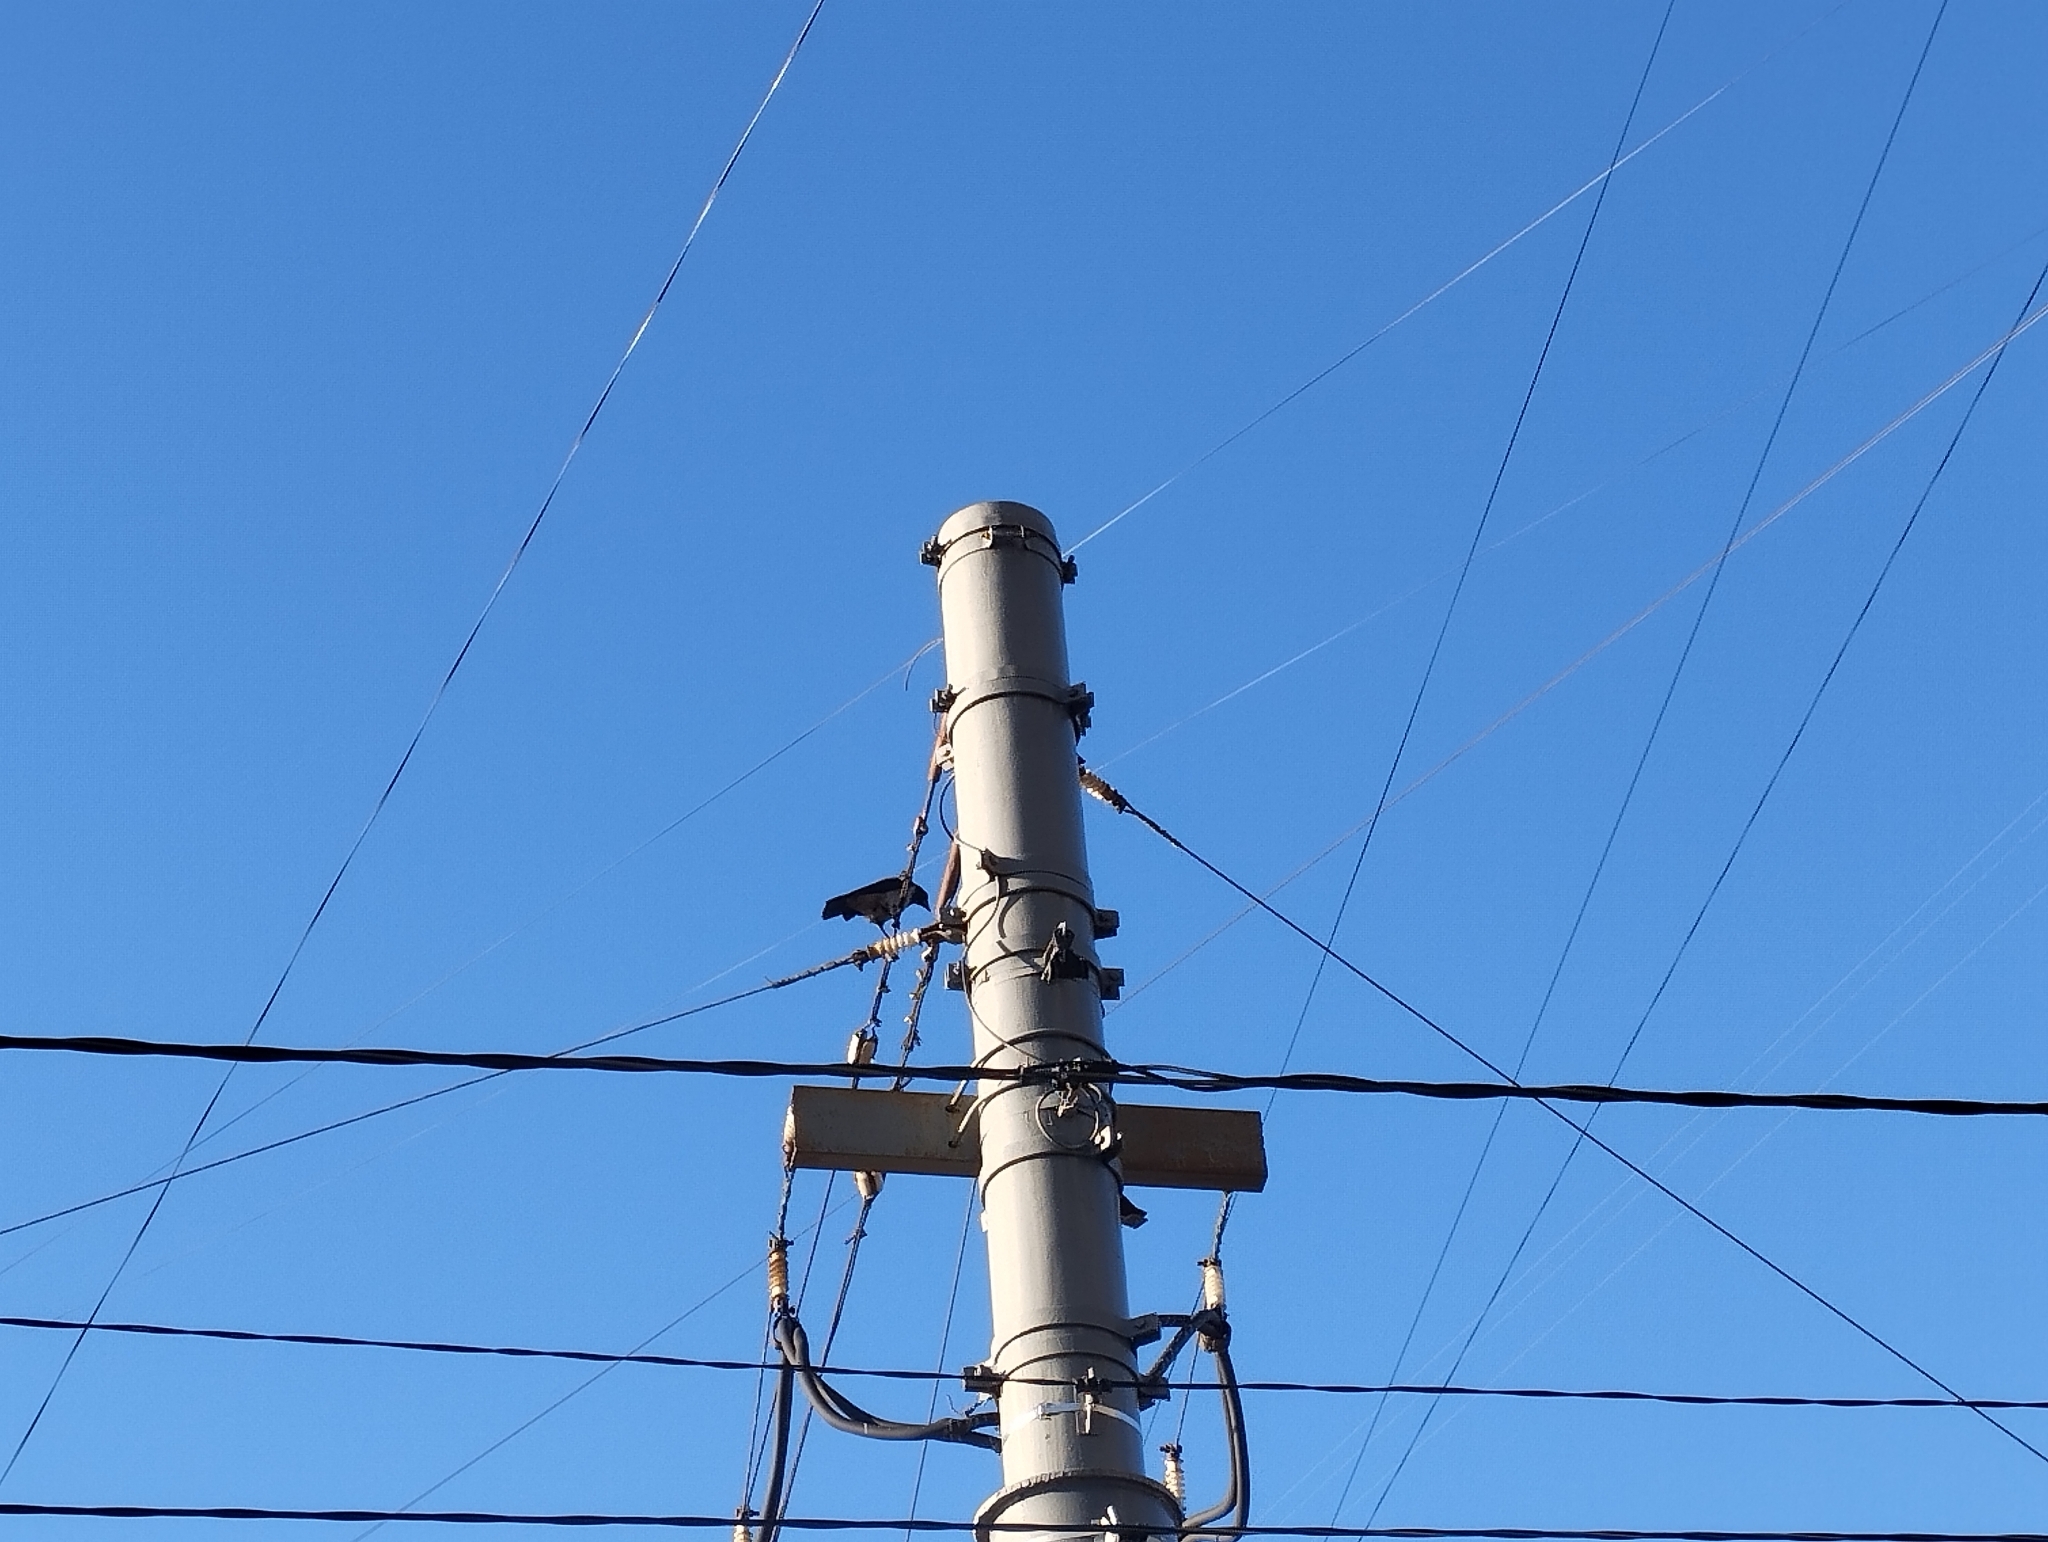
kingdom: Animalia
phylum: Chordata
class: Aves
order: Passeriformes
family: Corvidae
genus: Corvus
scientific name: Corvus cornix
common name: Hooded crow
